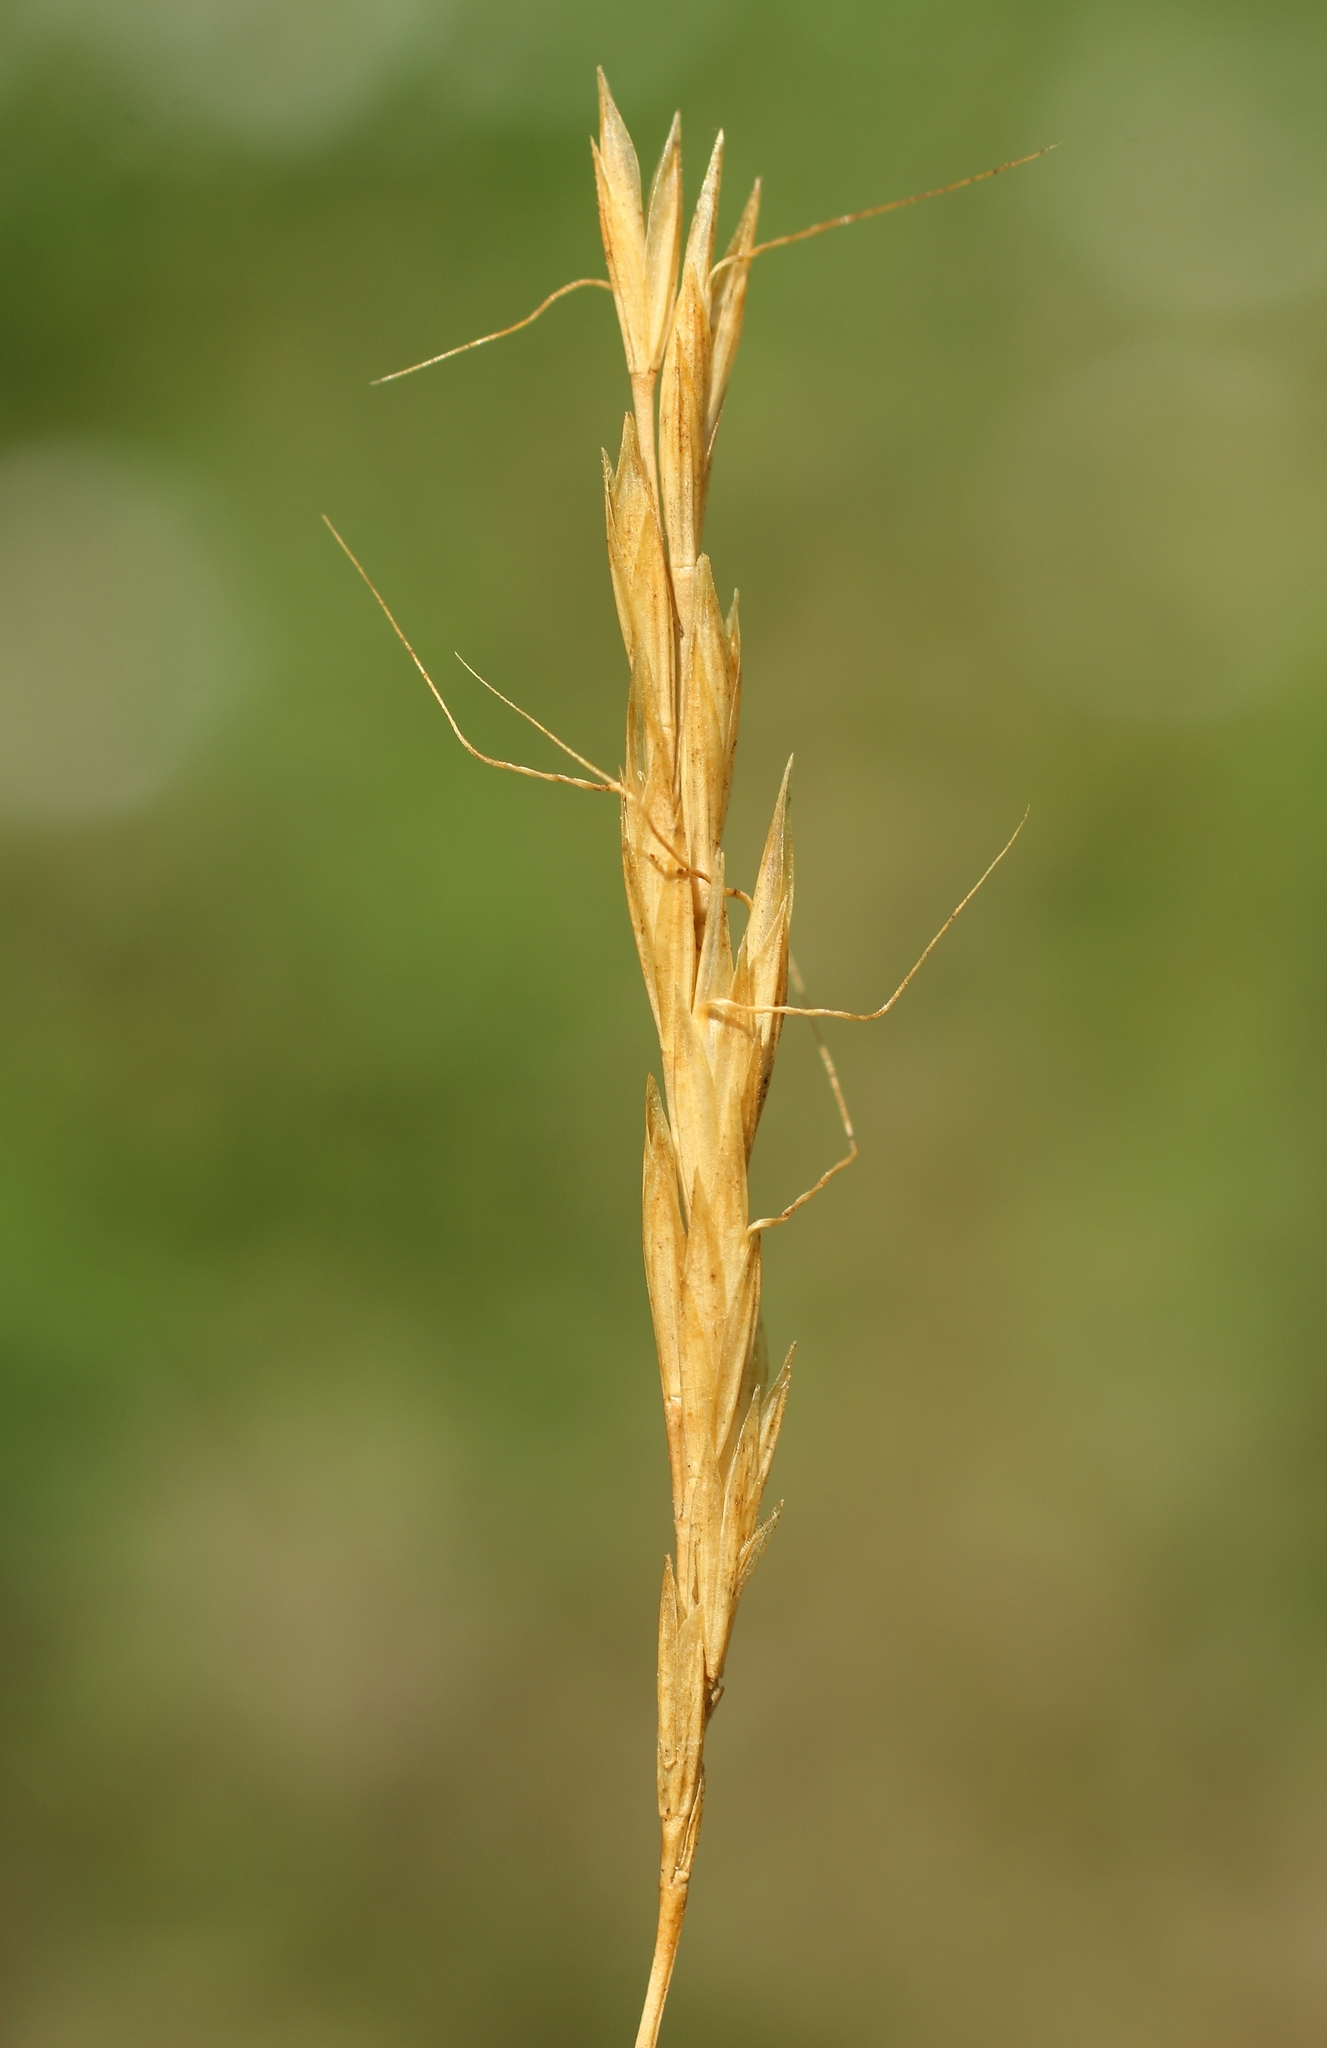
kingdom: Plantae
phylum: Tracheophyta
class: Liliopsida
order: Poales
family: Poaceae
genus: Ventenata
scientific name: Ventenata macra
